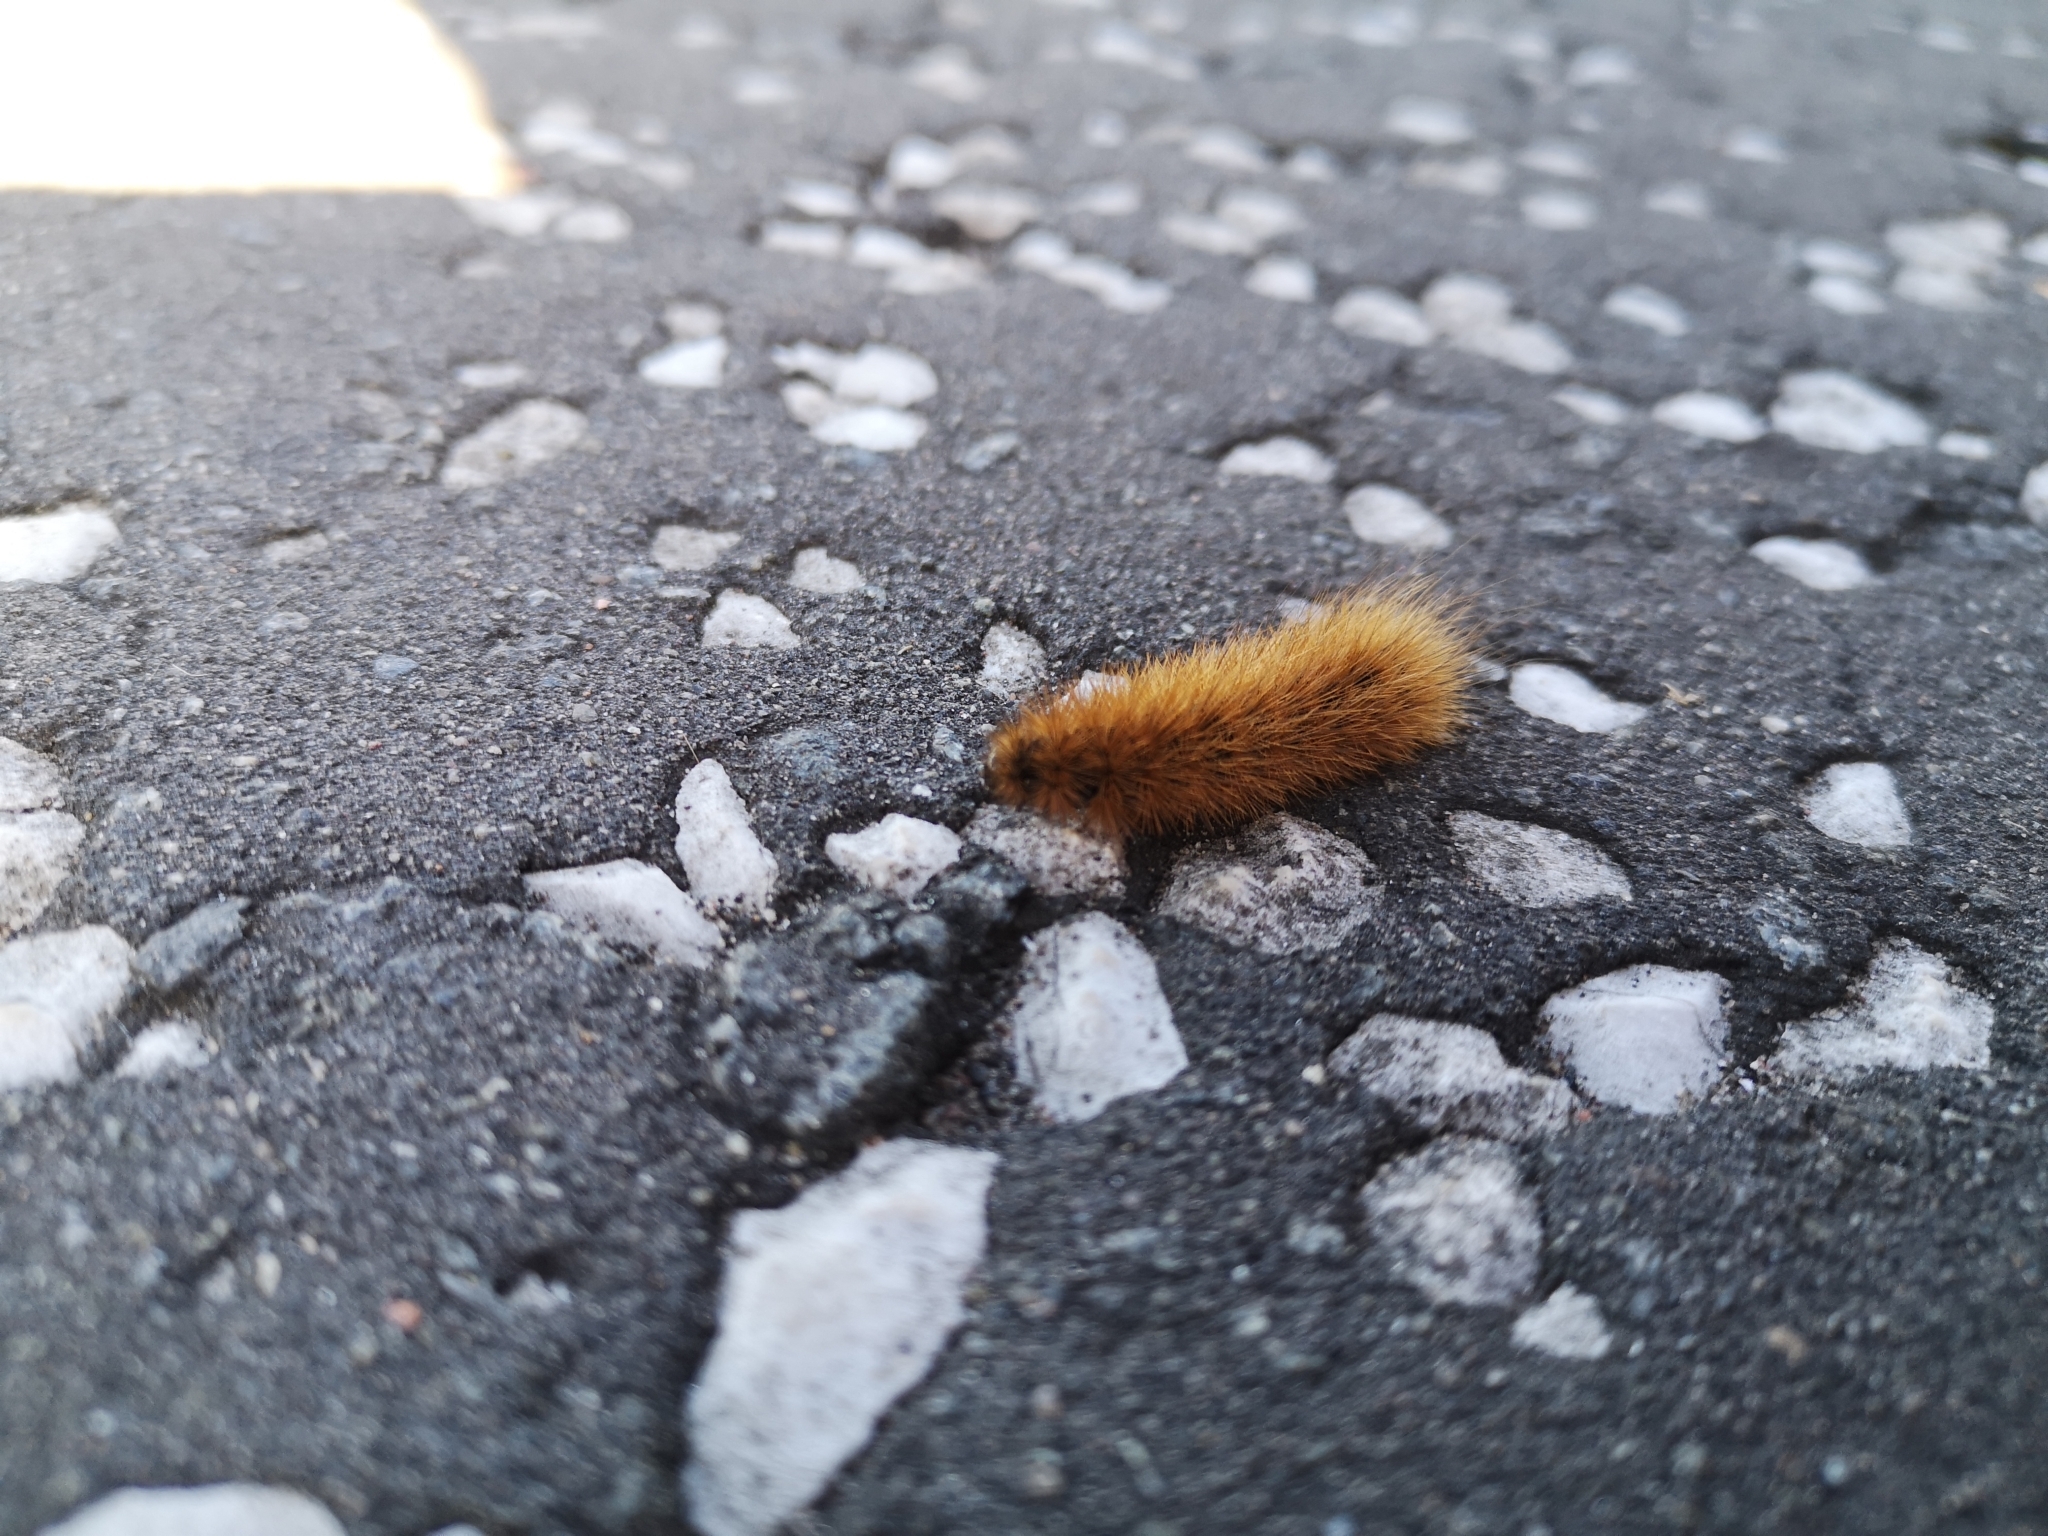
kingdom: Animalia
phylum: Arthropoda
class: Insecta
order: Lepidoptera
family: Erebidae
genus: Phragmatobia
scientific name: Phragmatobia fuliginosa
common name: Ruby tiger
